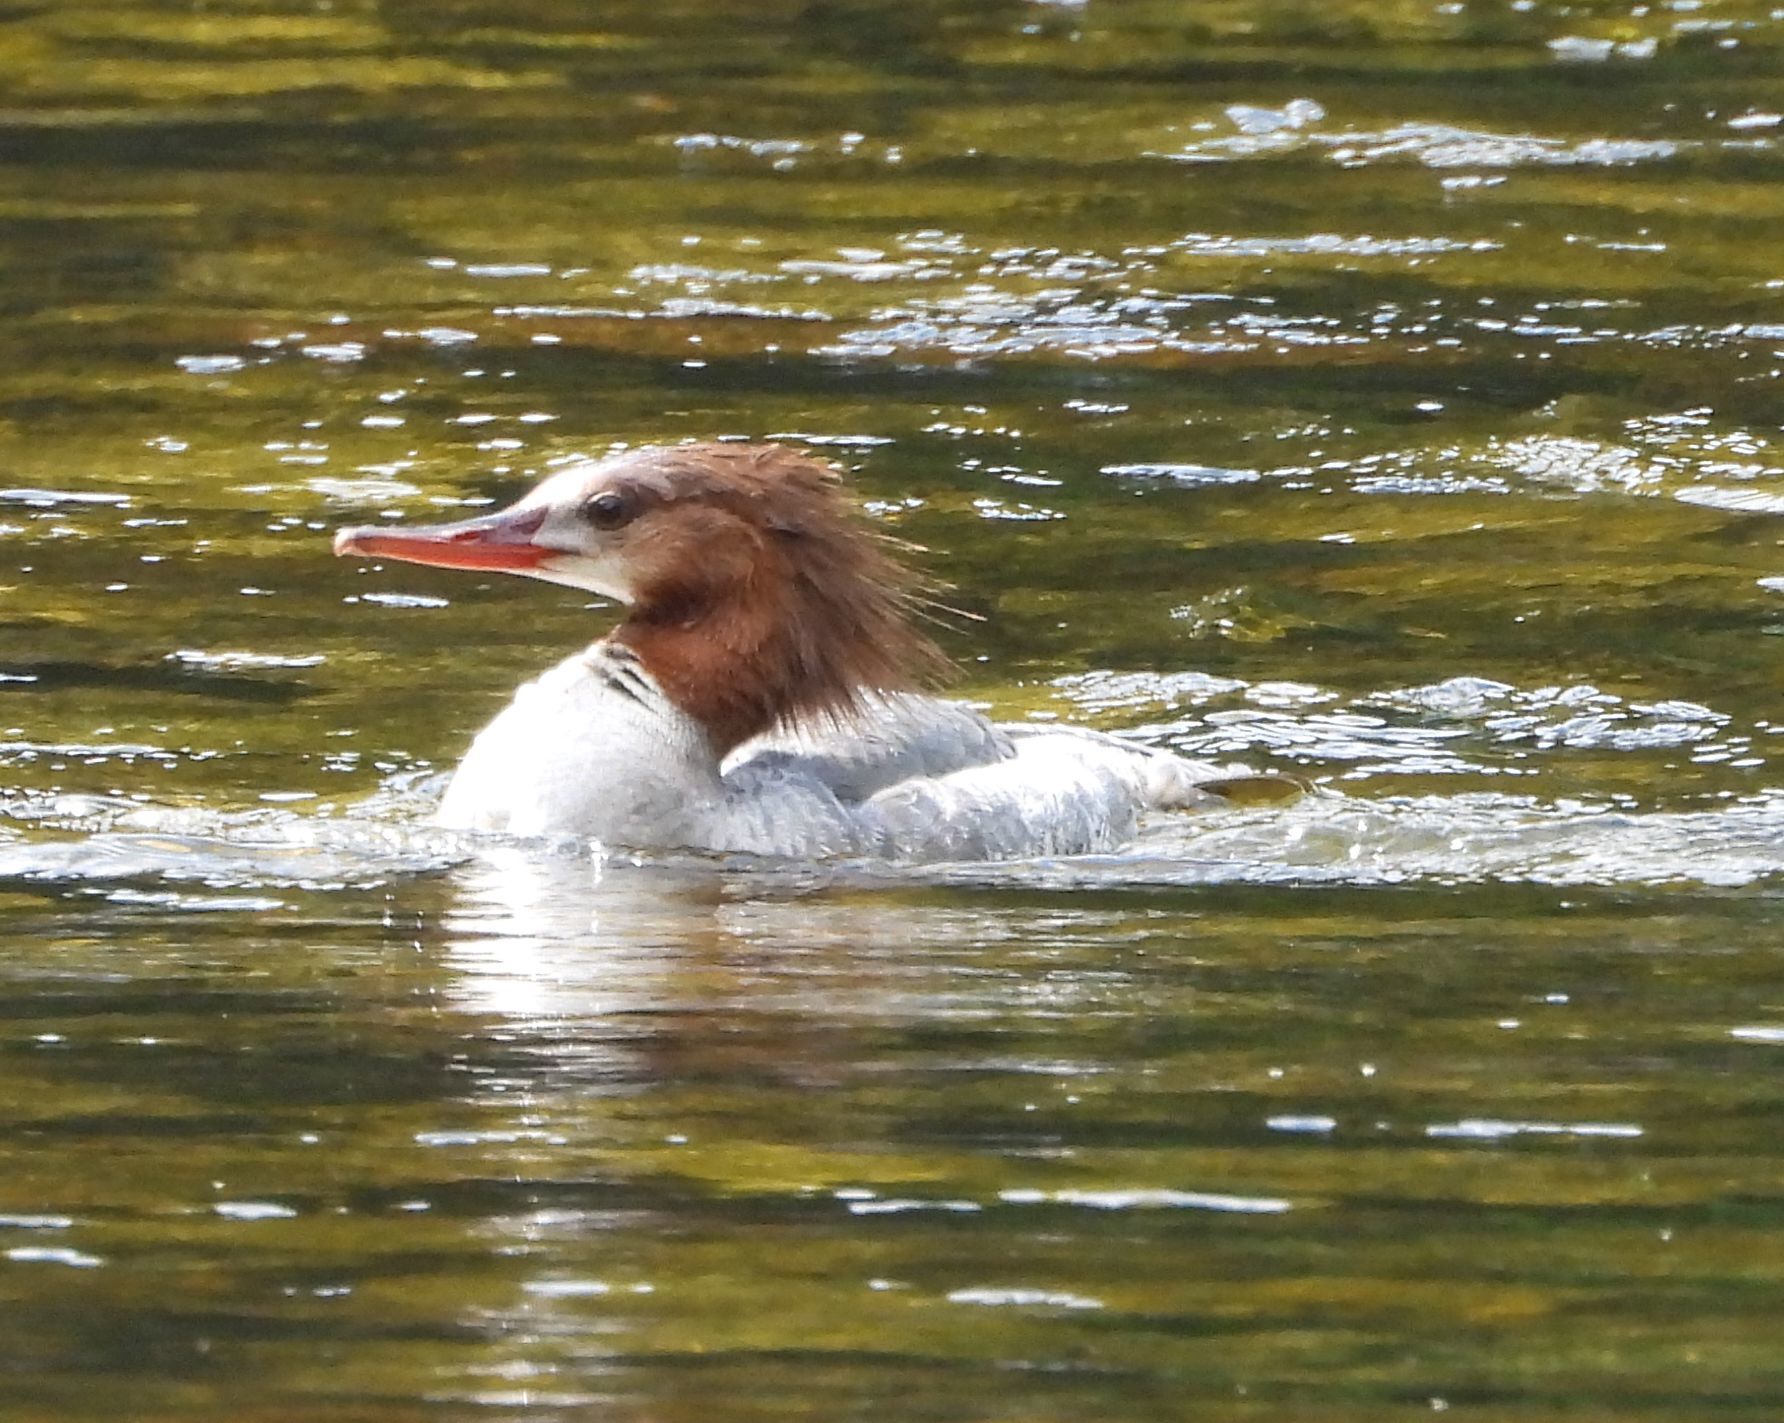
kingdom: Animalia
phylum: Chordata
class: Aves
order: Anseriformes
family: Anatidae
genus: Mergus
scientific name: Mergus merganser
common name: Common merganser
